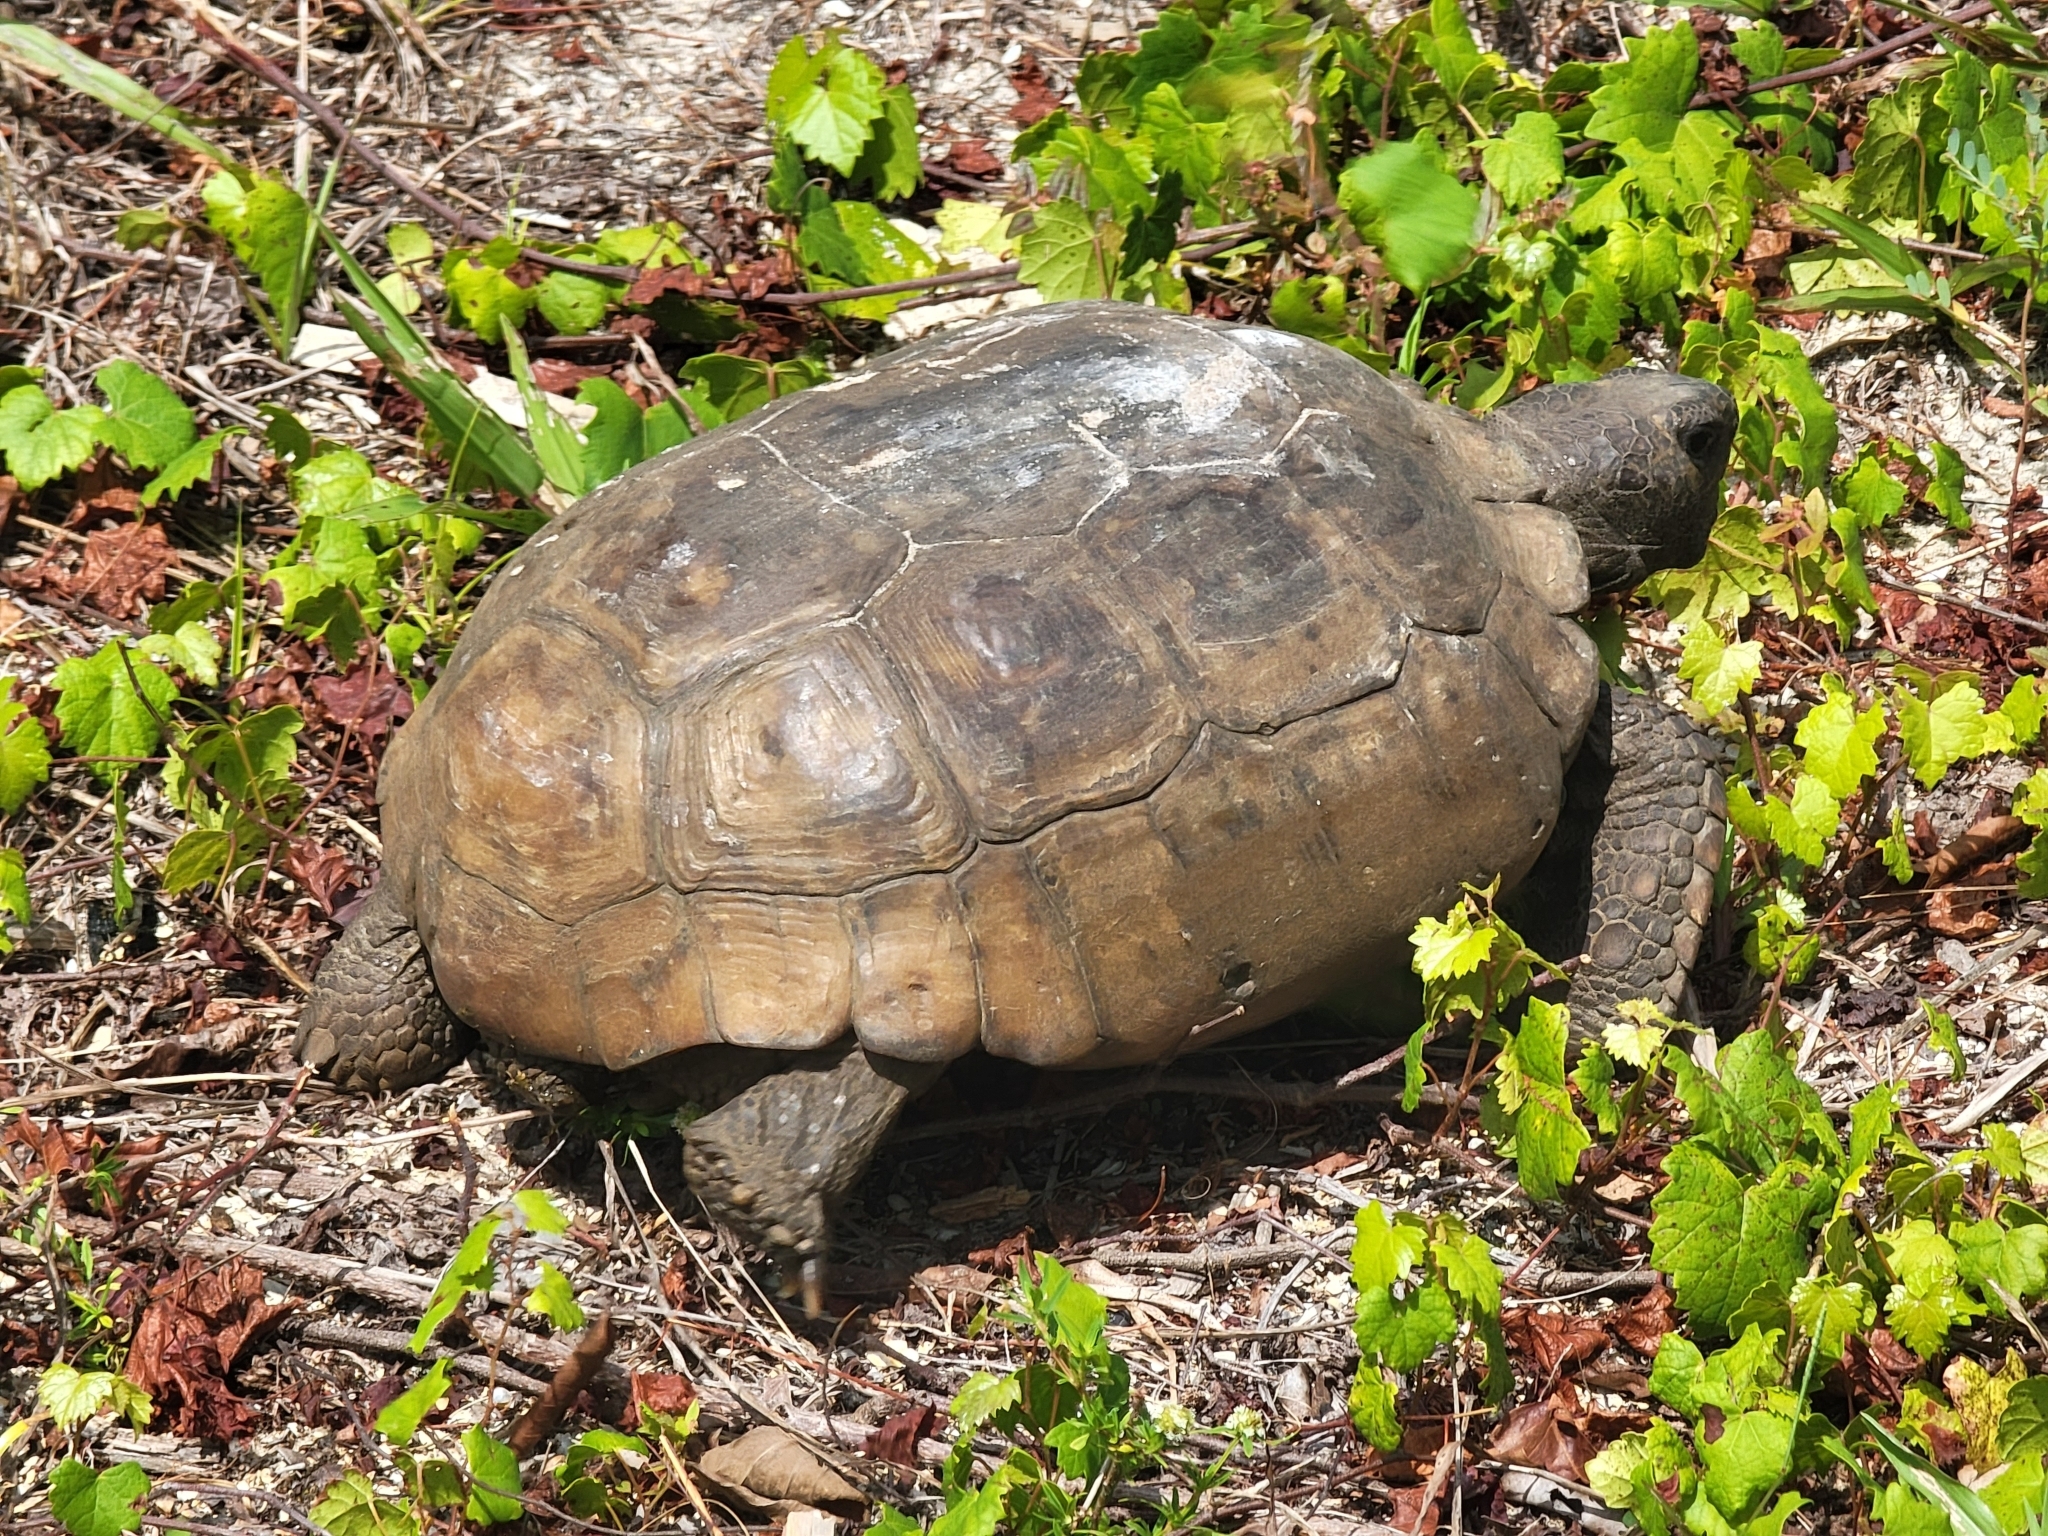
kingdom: Animalia
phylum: Chordata
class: Testudines
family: Testudinidae
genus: Gopherus
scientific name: Gopherus polyphemus
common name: Florida gopher tortoise
